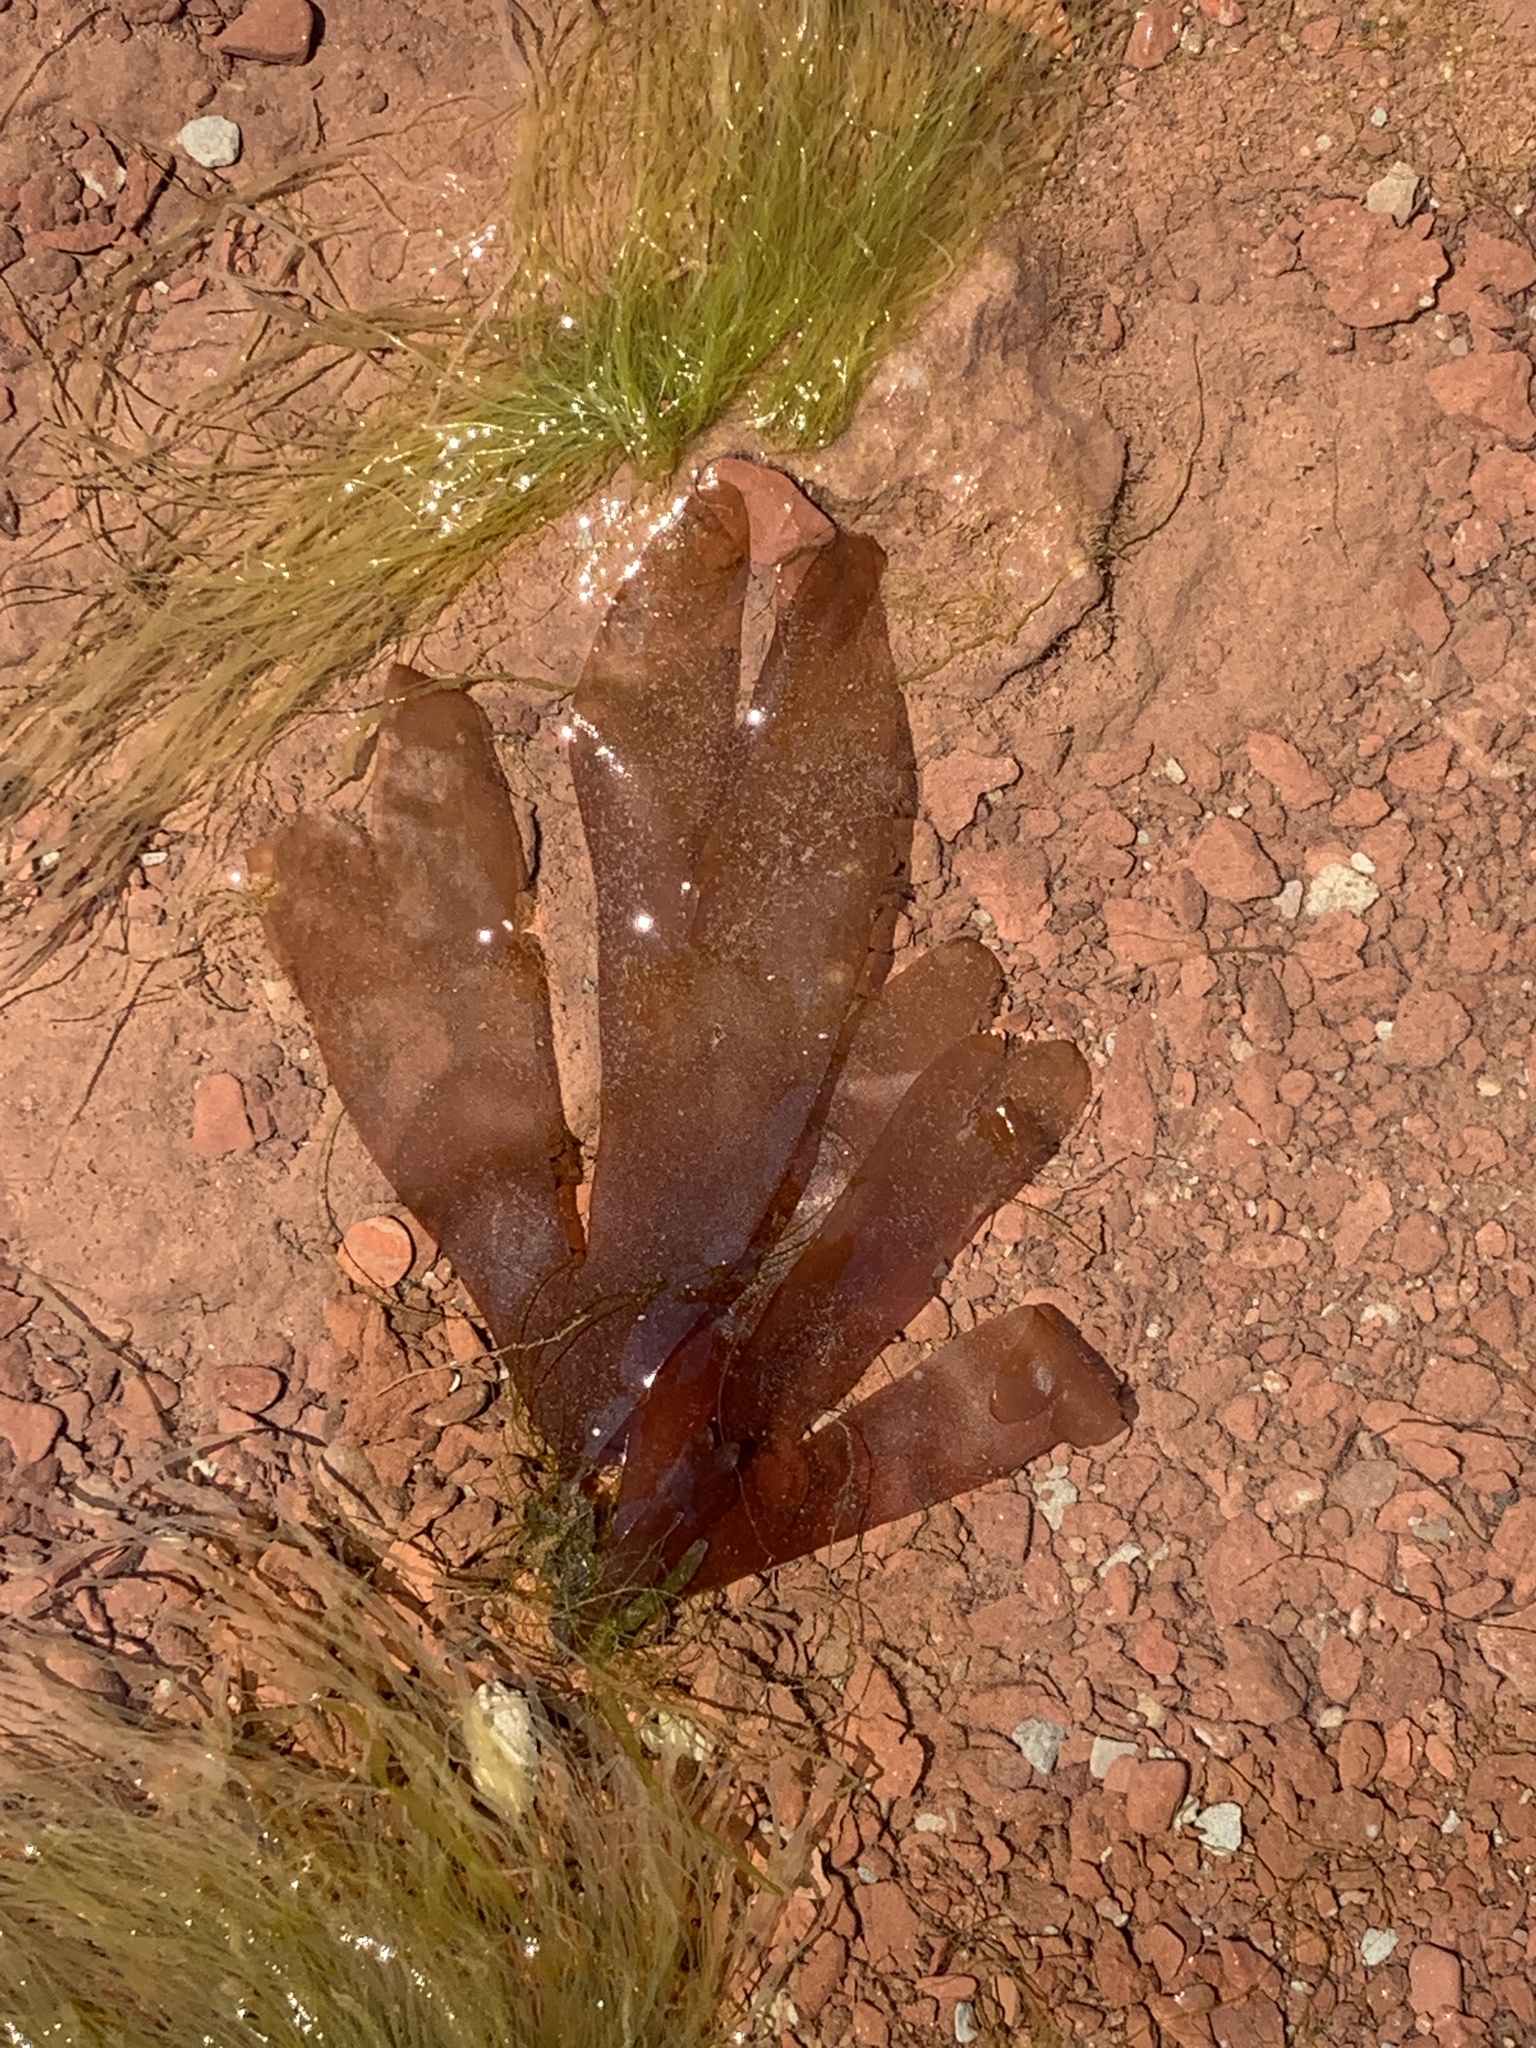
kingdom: Plantae
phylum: Rhodophyta
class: Florideophyceae
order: Palmariales
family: Palmariaceae
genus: Palmaria
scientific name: Palmaria palmata
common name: Dulse
